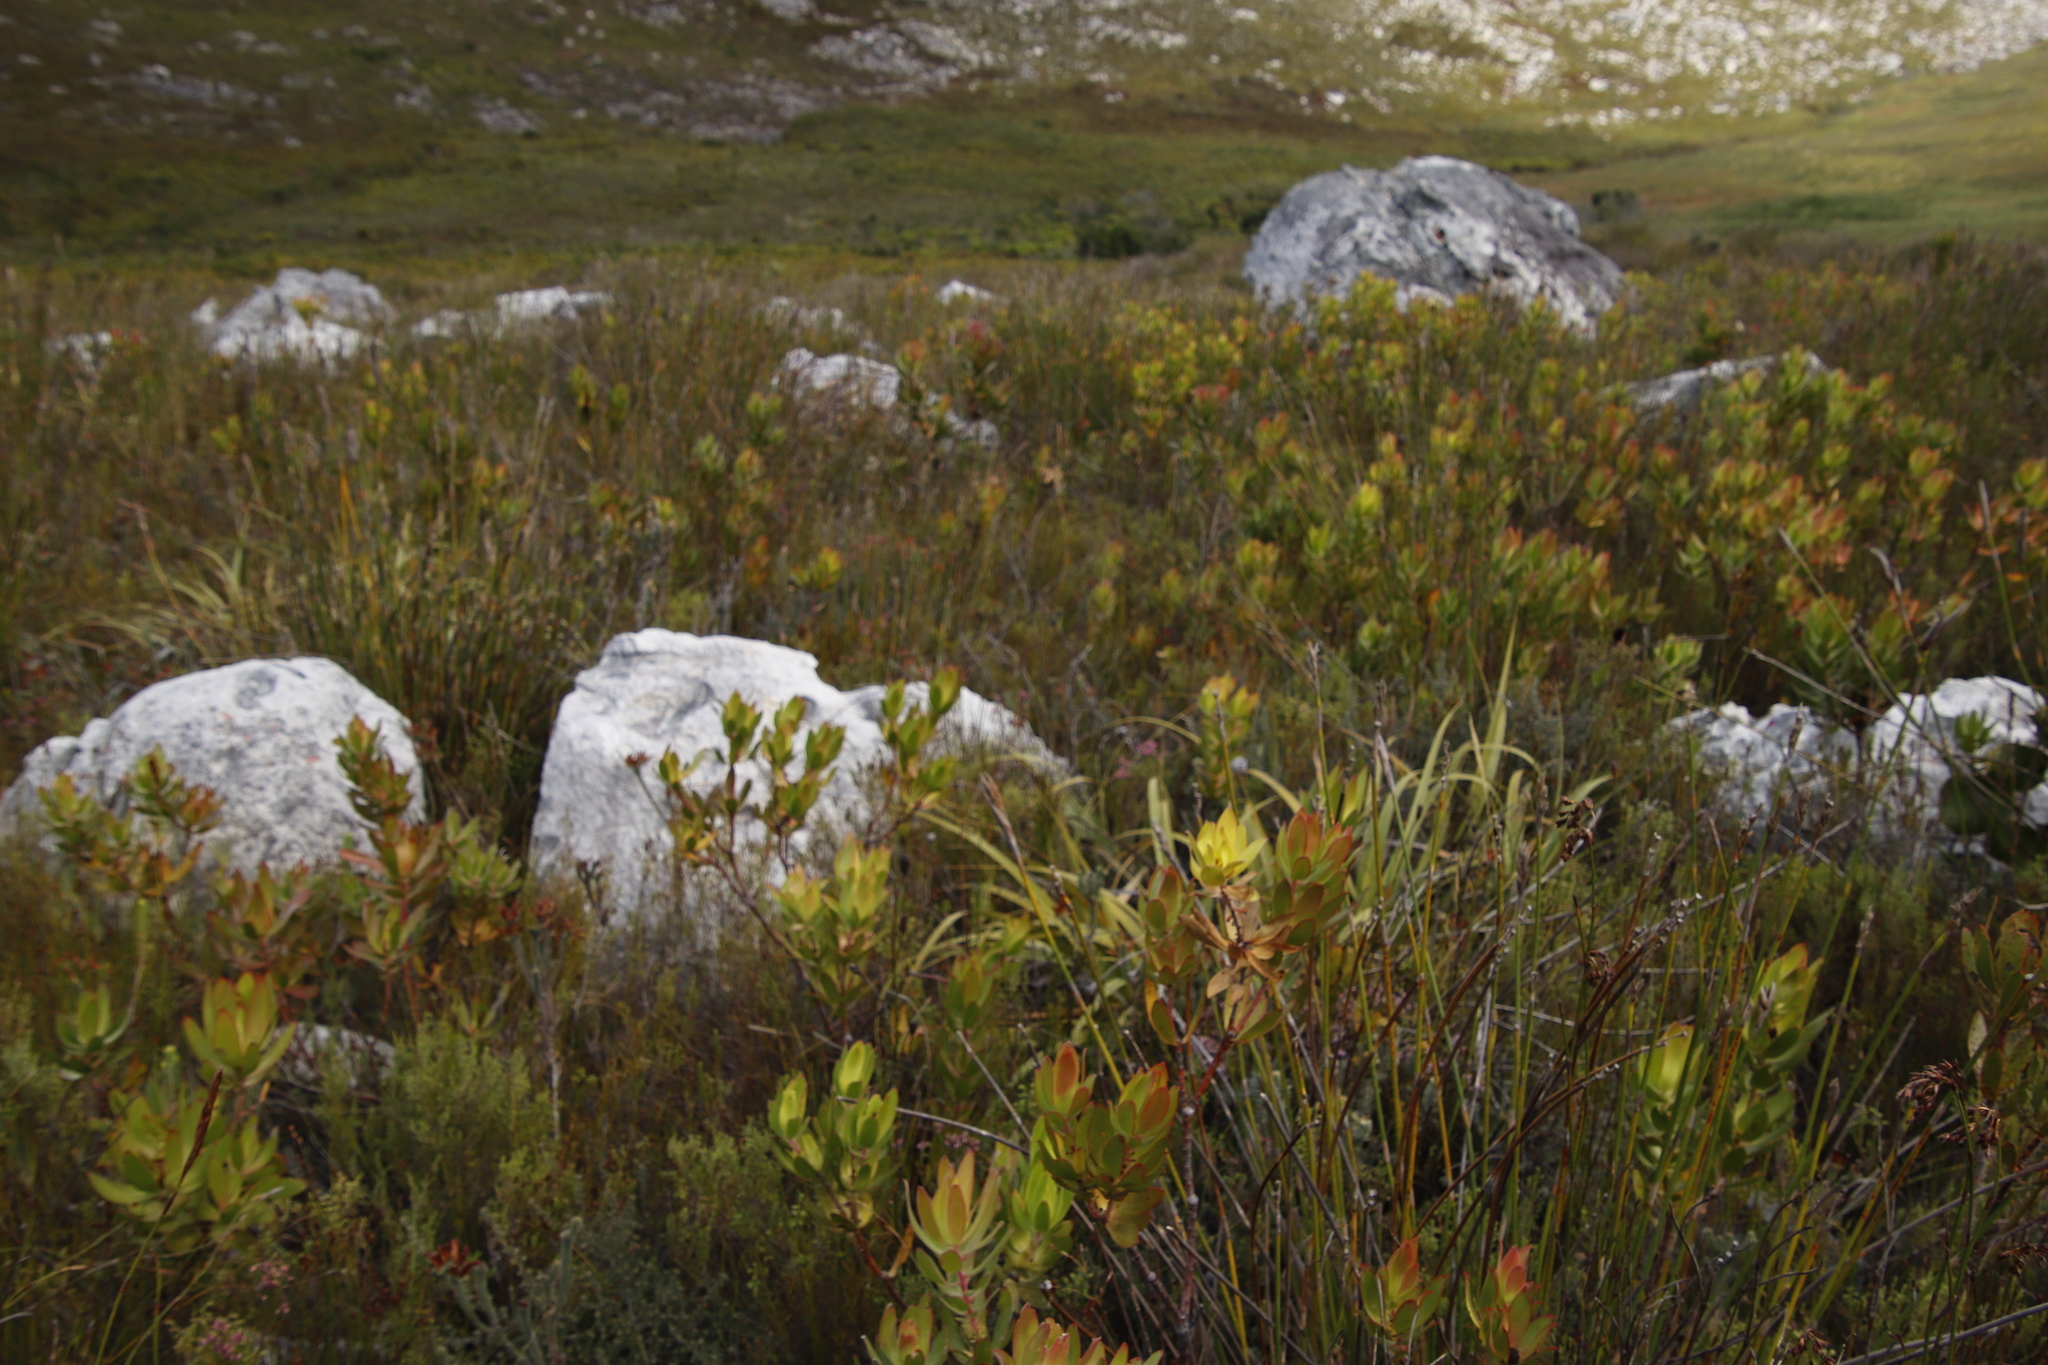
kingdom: Plantae
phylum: Tracheophyta
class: Magnoliopsida
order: Proteales
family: Proteaceae
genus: Leucadendron
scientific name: Leucadendron gandogeri
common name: Broad-leaf conebush
